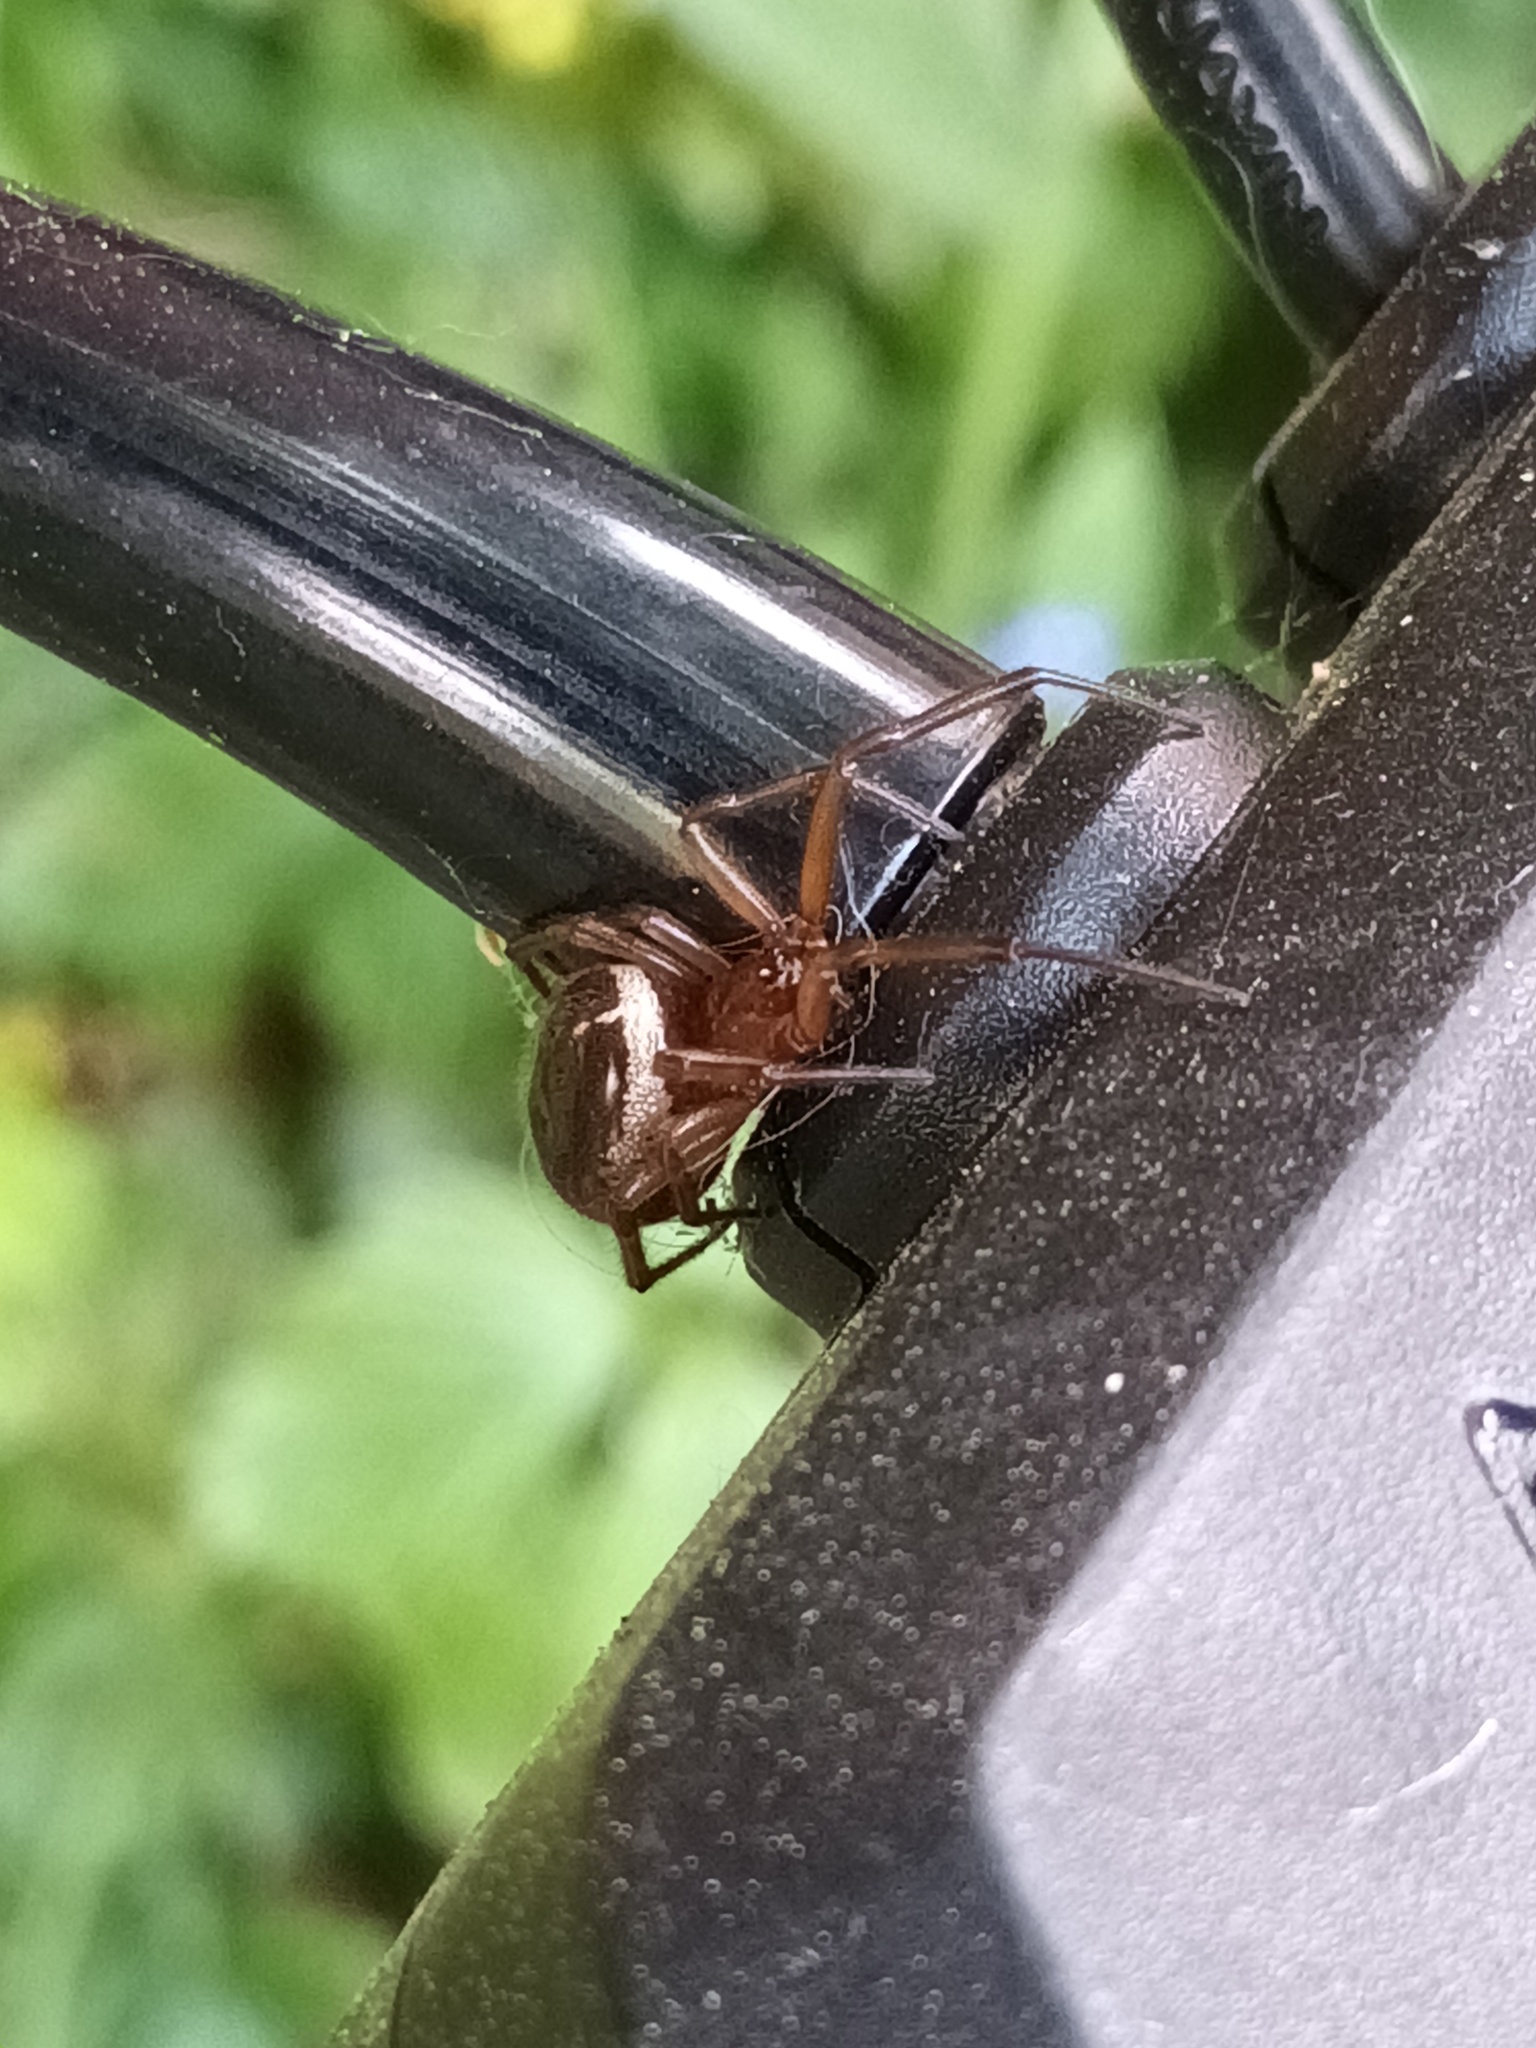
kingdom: Animalia
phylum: Arthropoda
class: Arachnida
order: Araneae
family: Theridiidae
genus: Steatoda
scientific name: Steatoda nobilis
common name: Cobweb weaver
